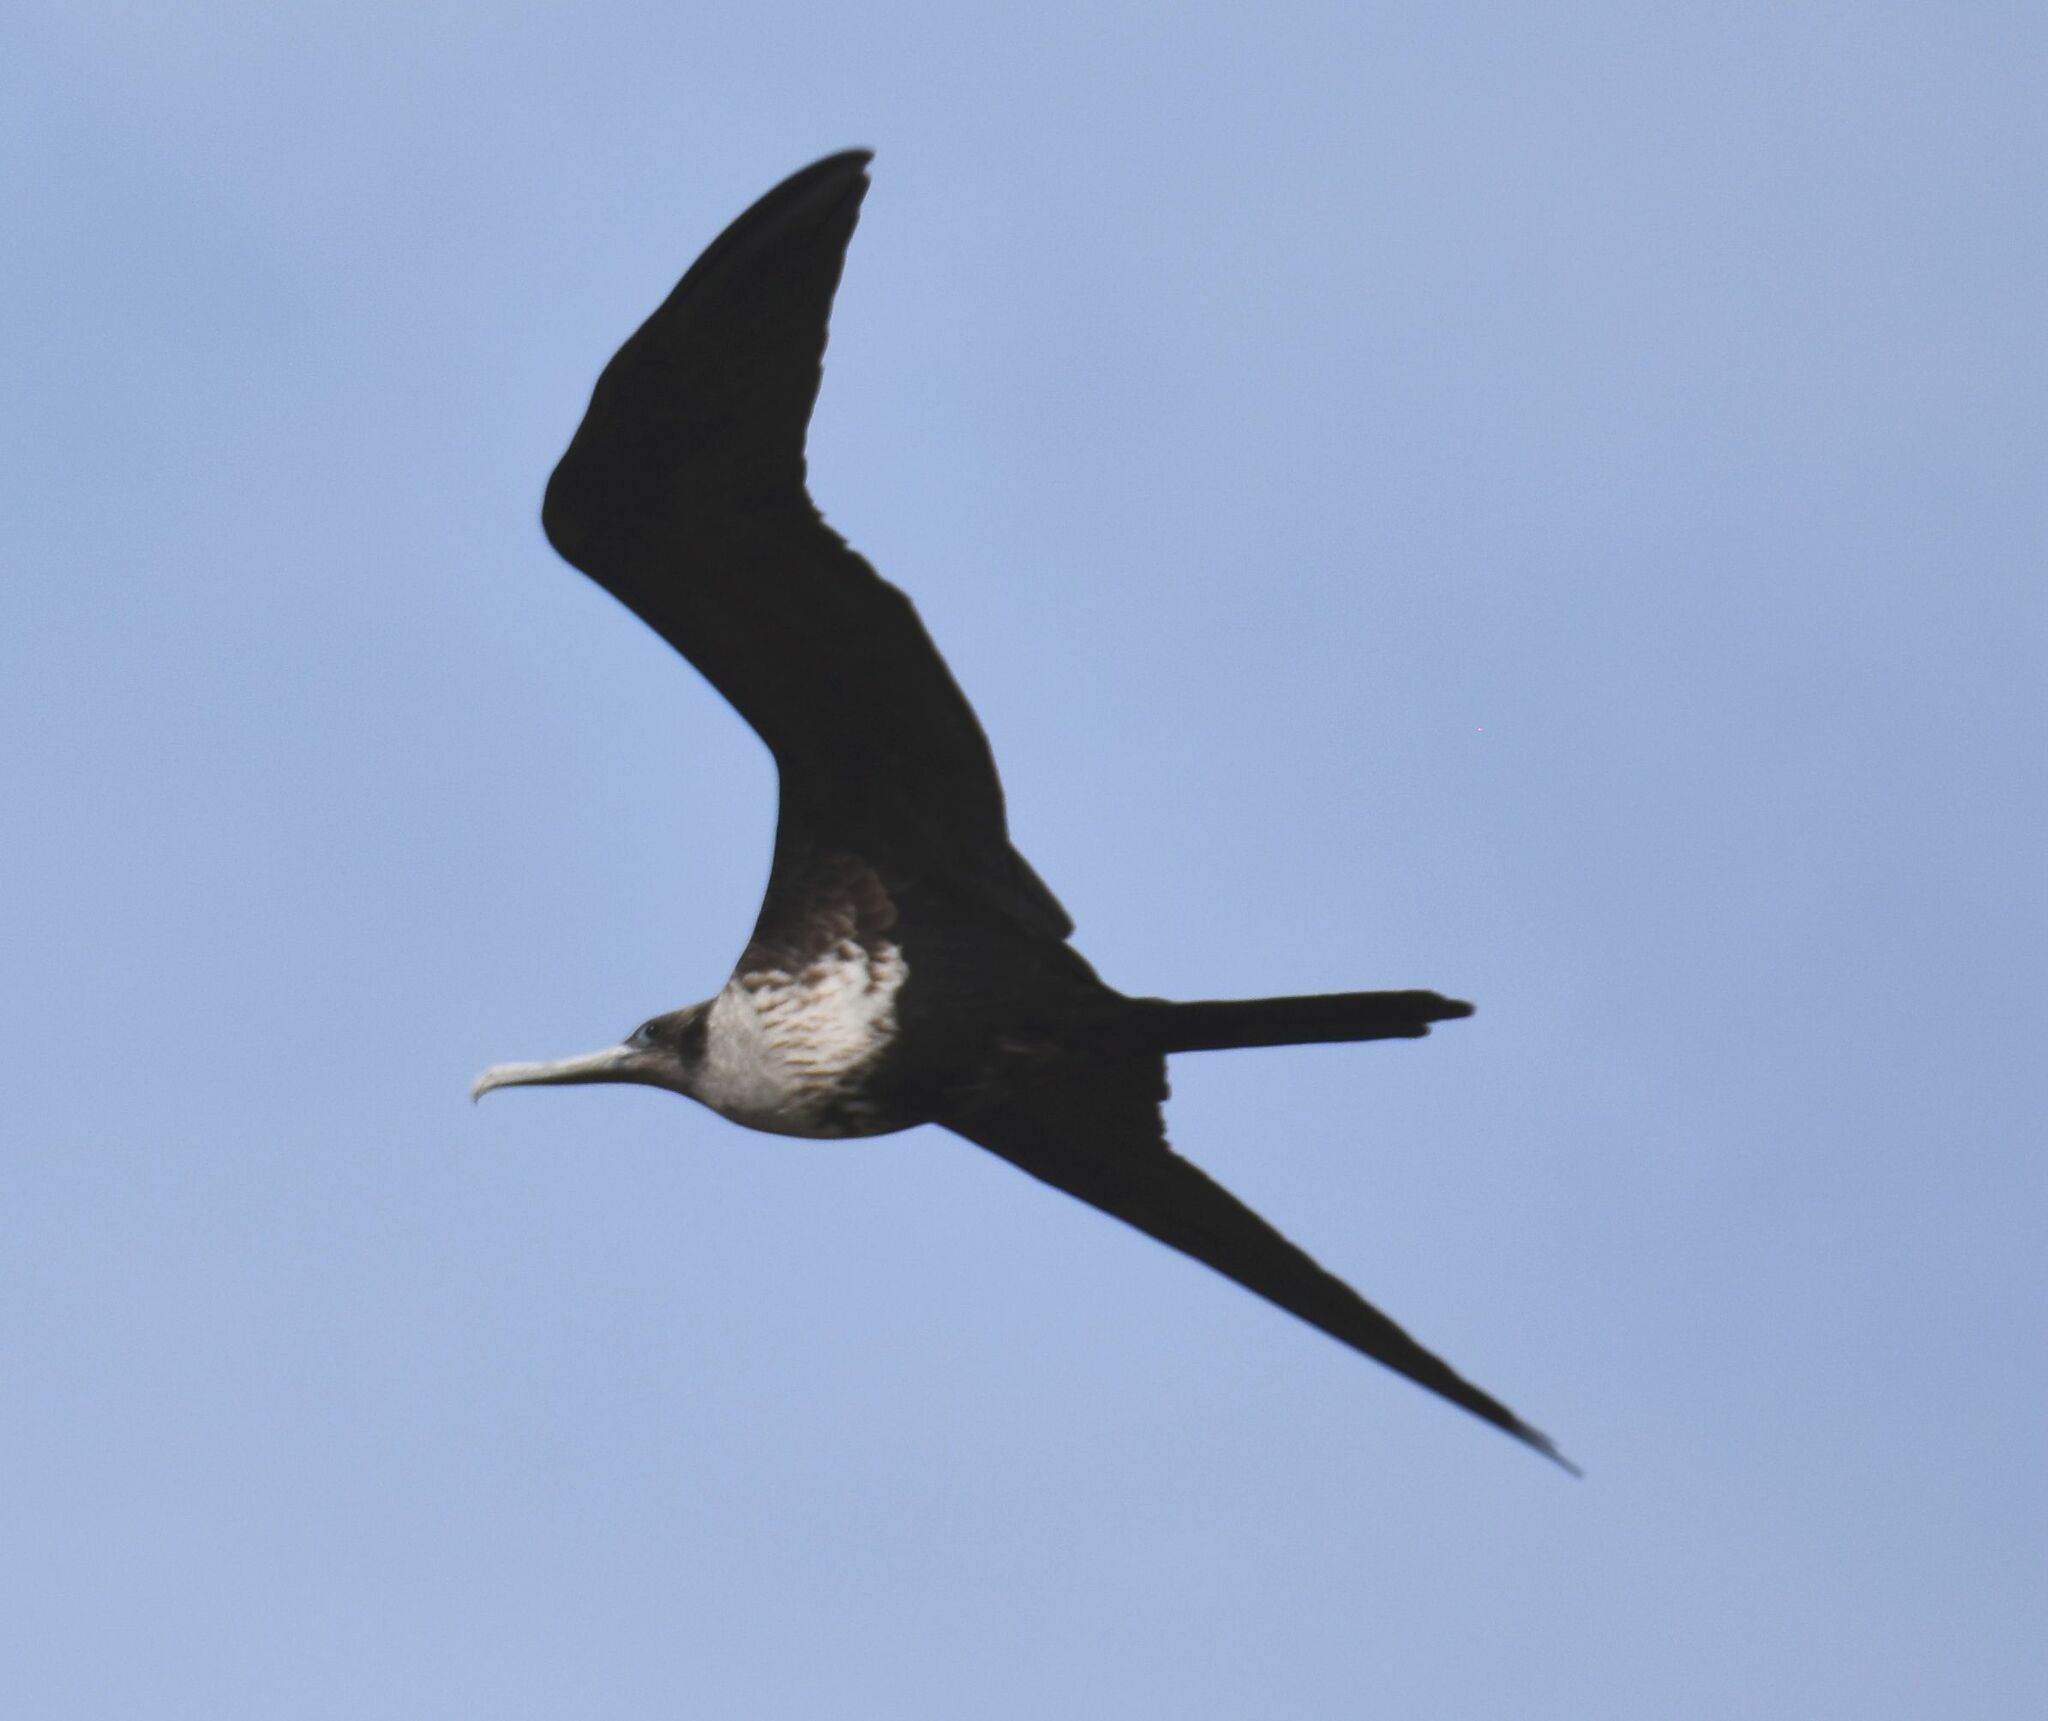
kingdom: Animalia
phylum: Chordata
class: Aves
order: Suliformes
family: Fregatidae
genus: Fregata
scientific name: Fregata magnificens
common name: Magnificent frigatebird
